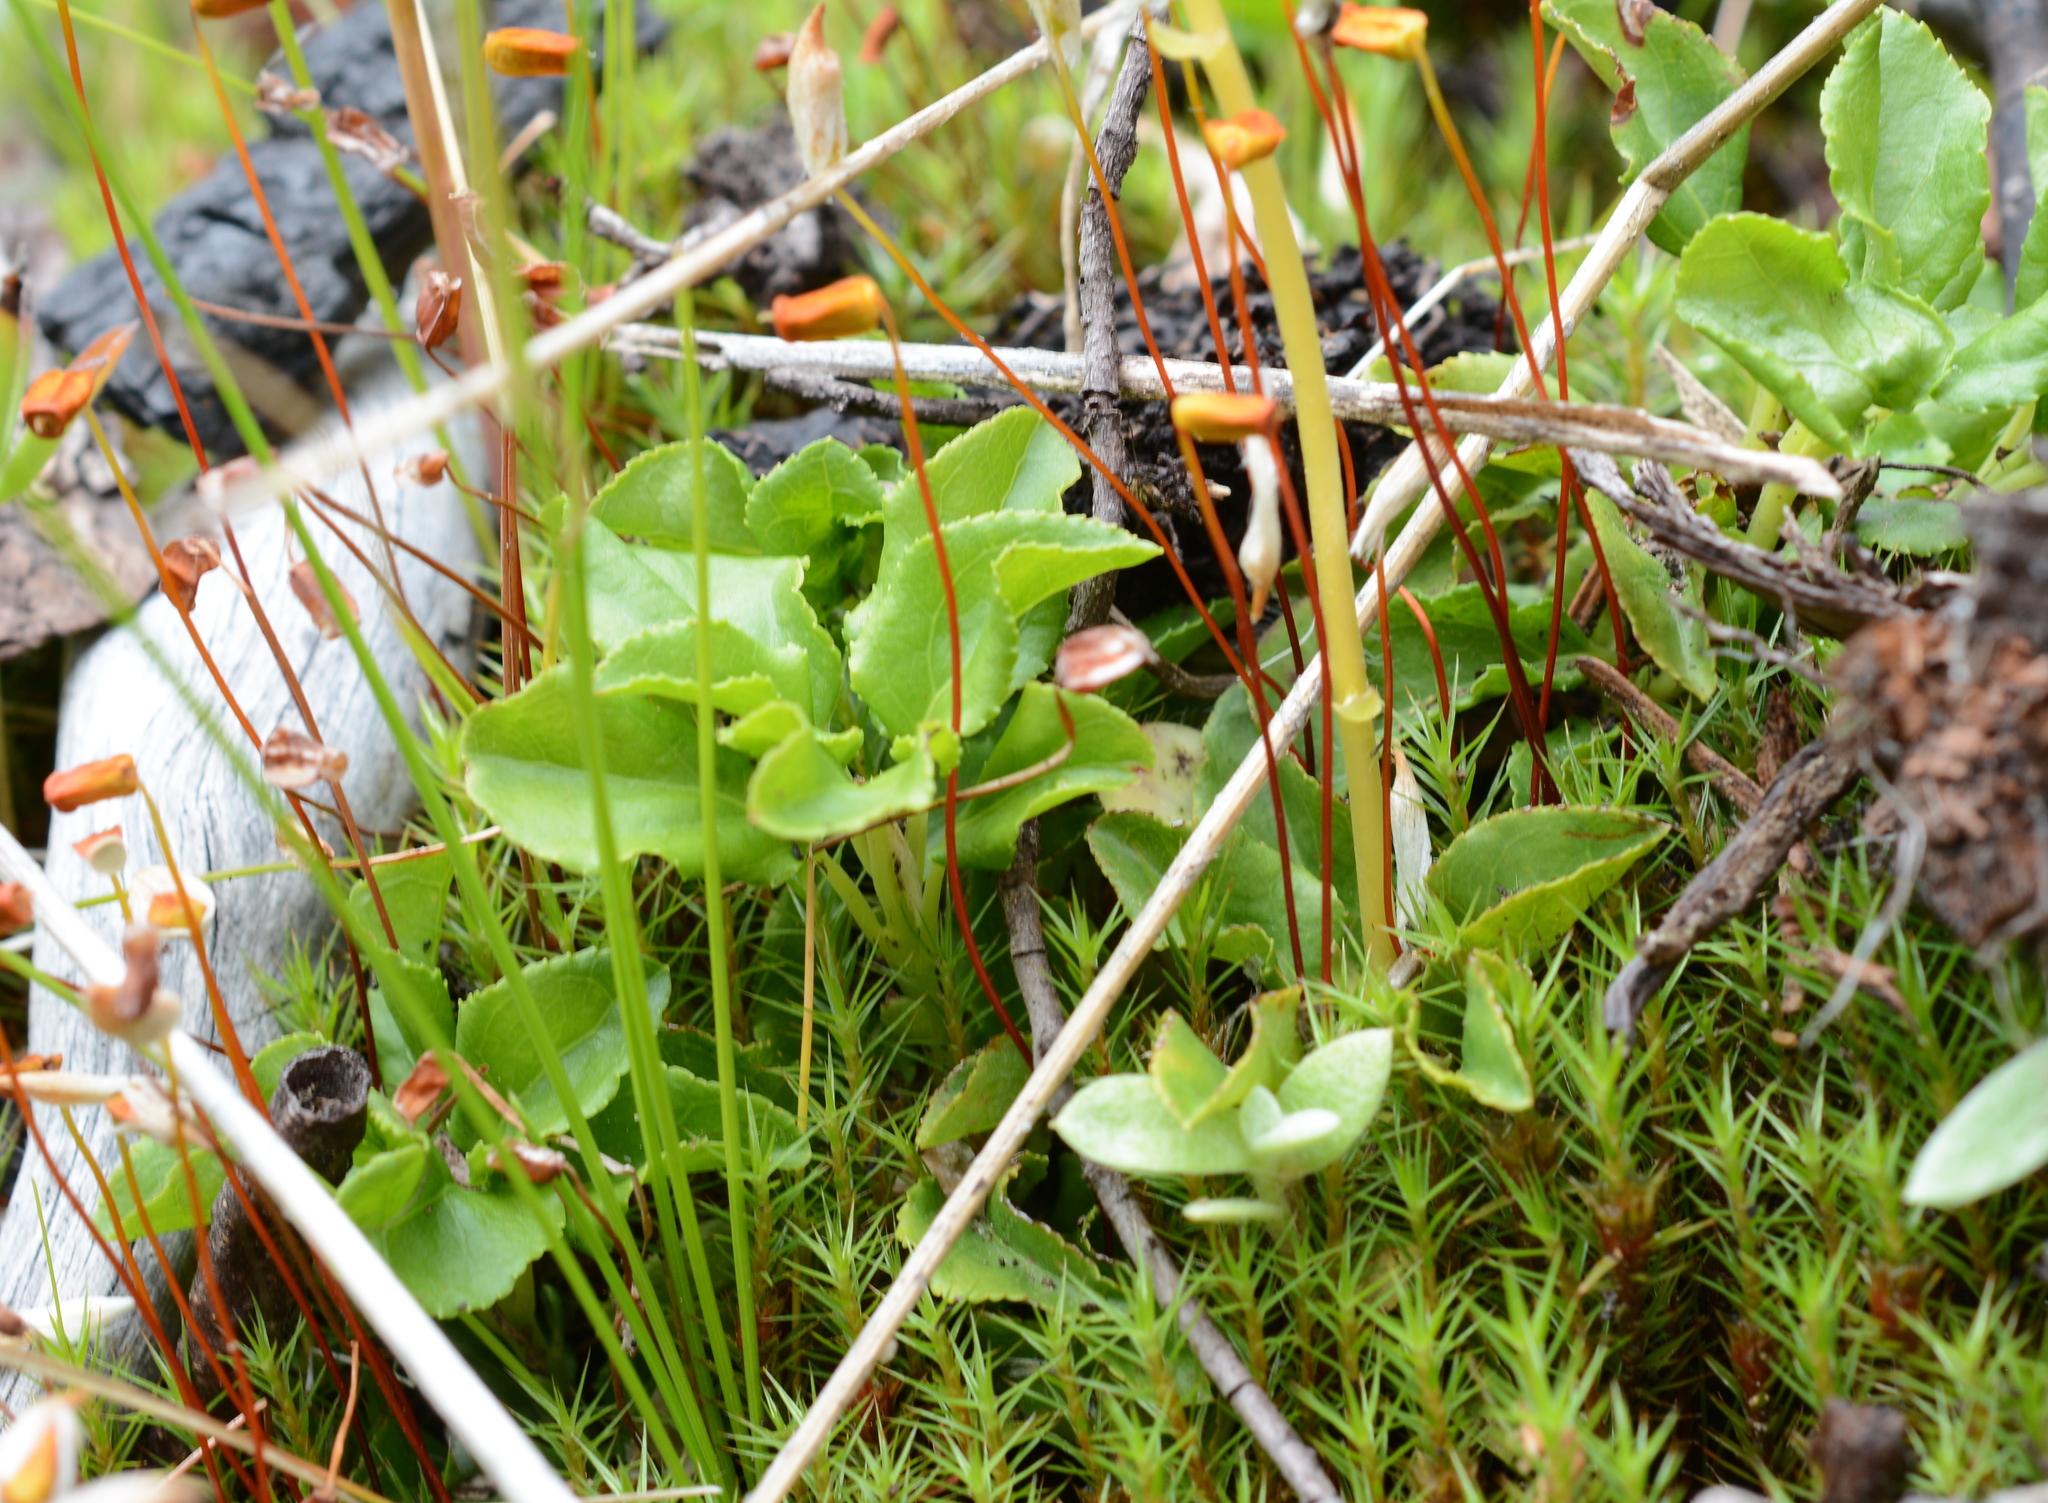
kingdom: Plantae
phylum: Tracheophyta
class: Magnoliopsida
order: Ericales
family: Ericaceae
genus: Orthilia
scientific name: Orthilia secunda
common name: One-sided orthilia
